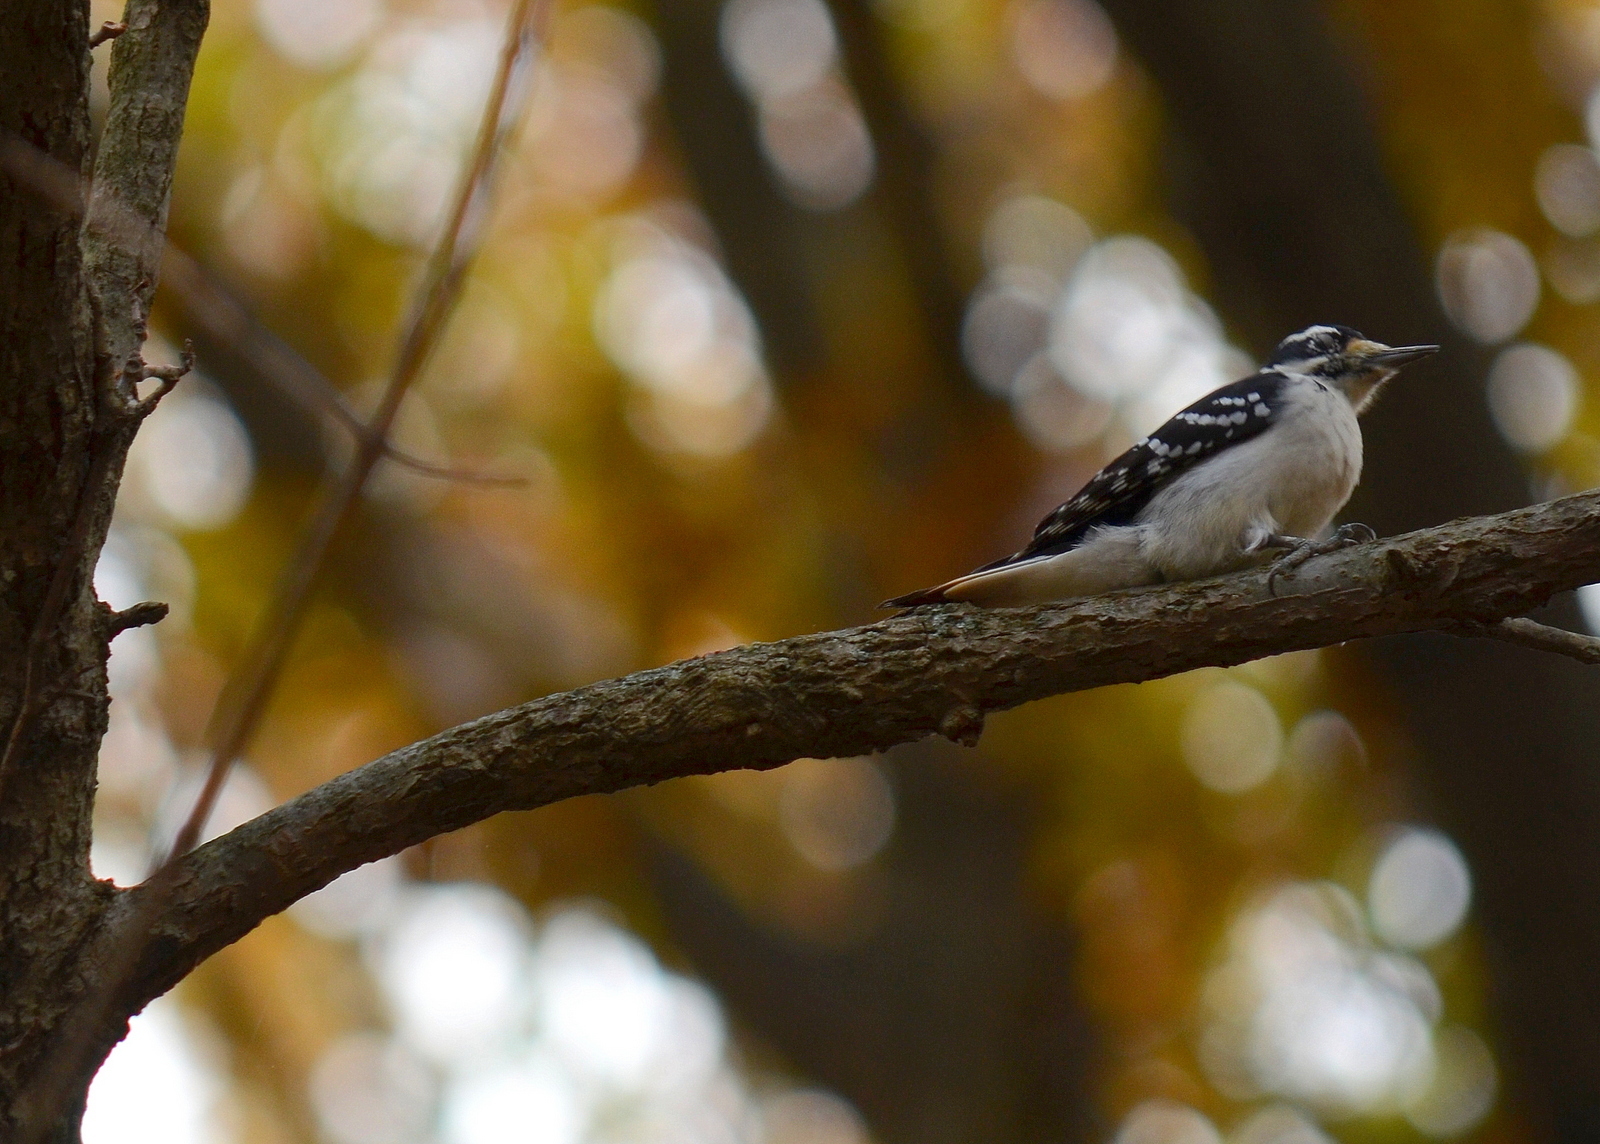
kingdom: Animalia
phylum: Chordata
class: Aves
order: Piciformes
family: Picidae
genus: Leuconotopicus
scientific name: Leuconotopicus villosus
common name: Hairy woodpecker
